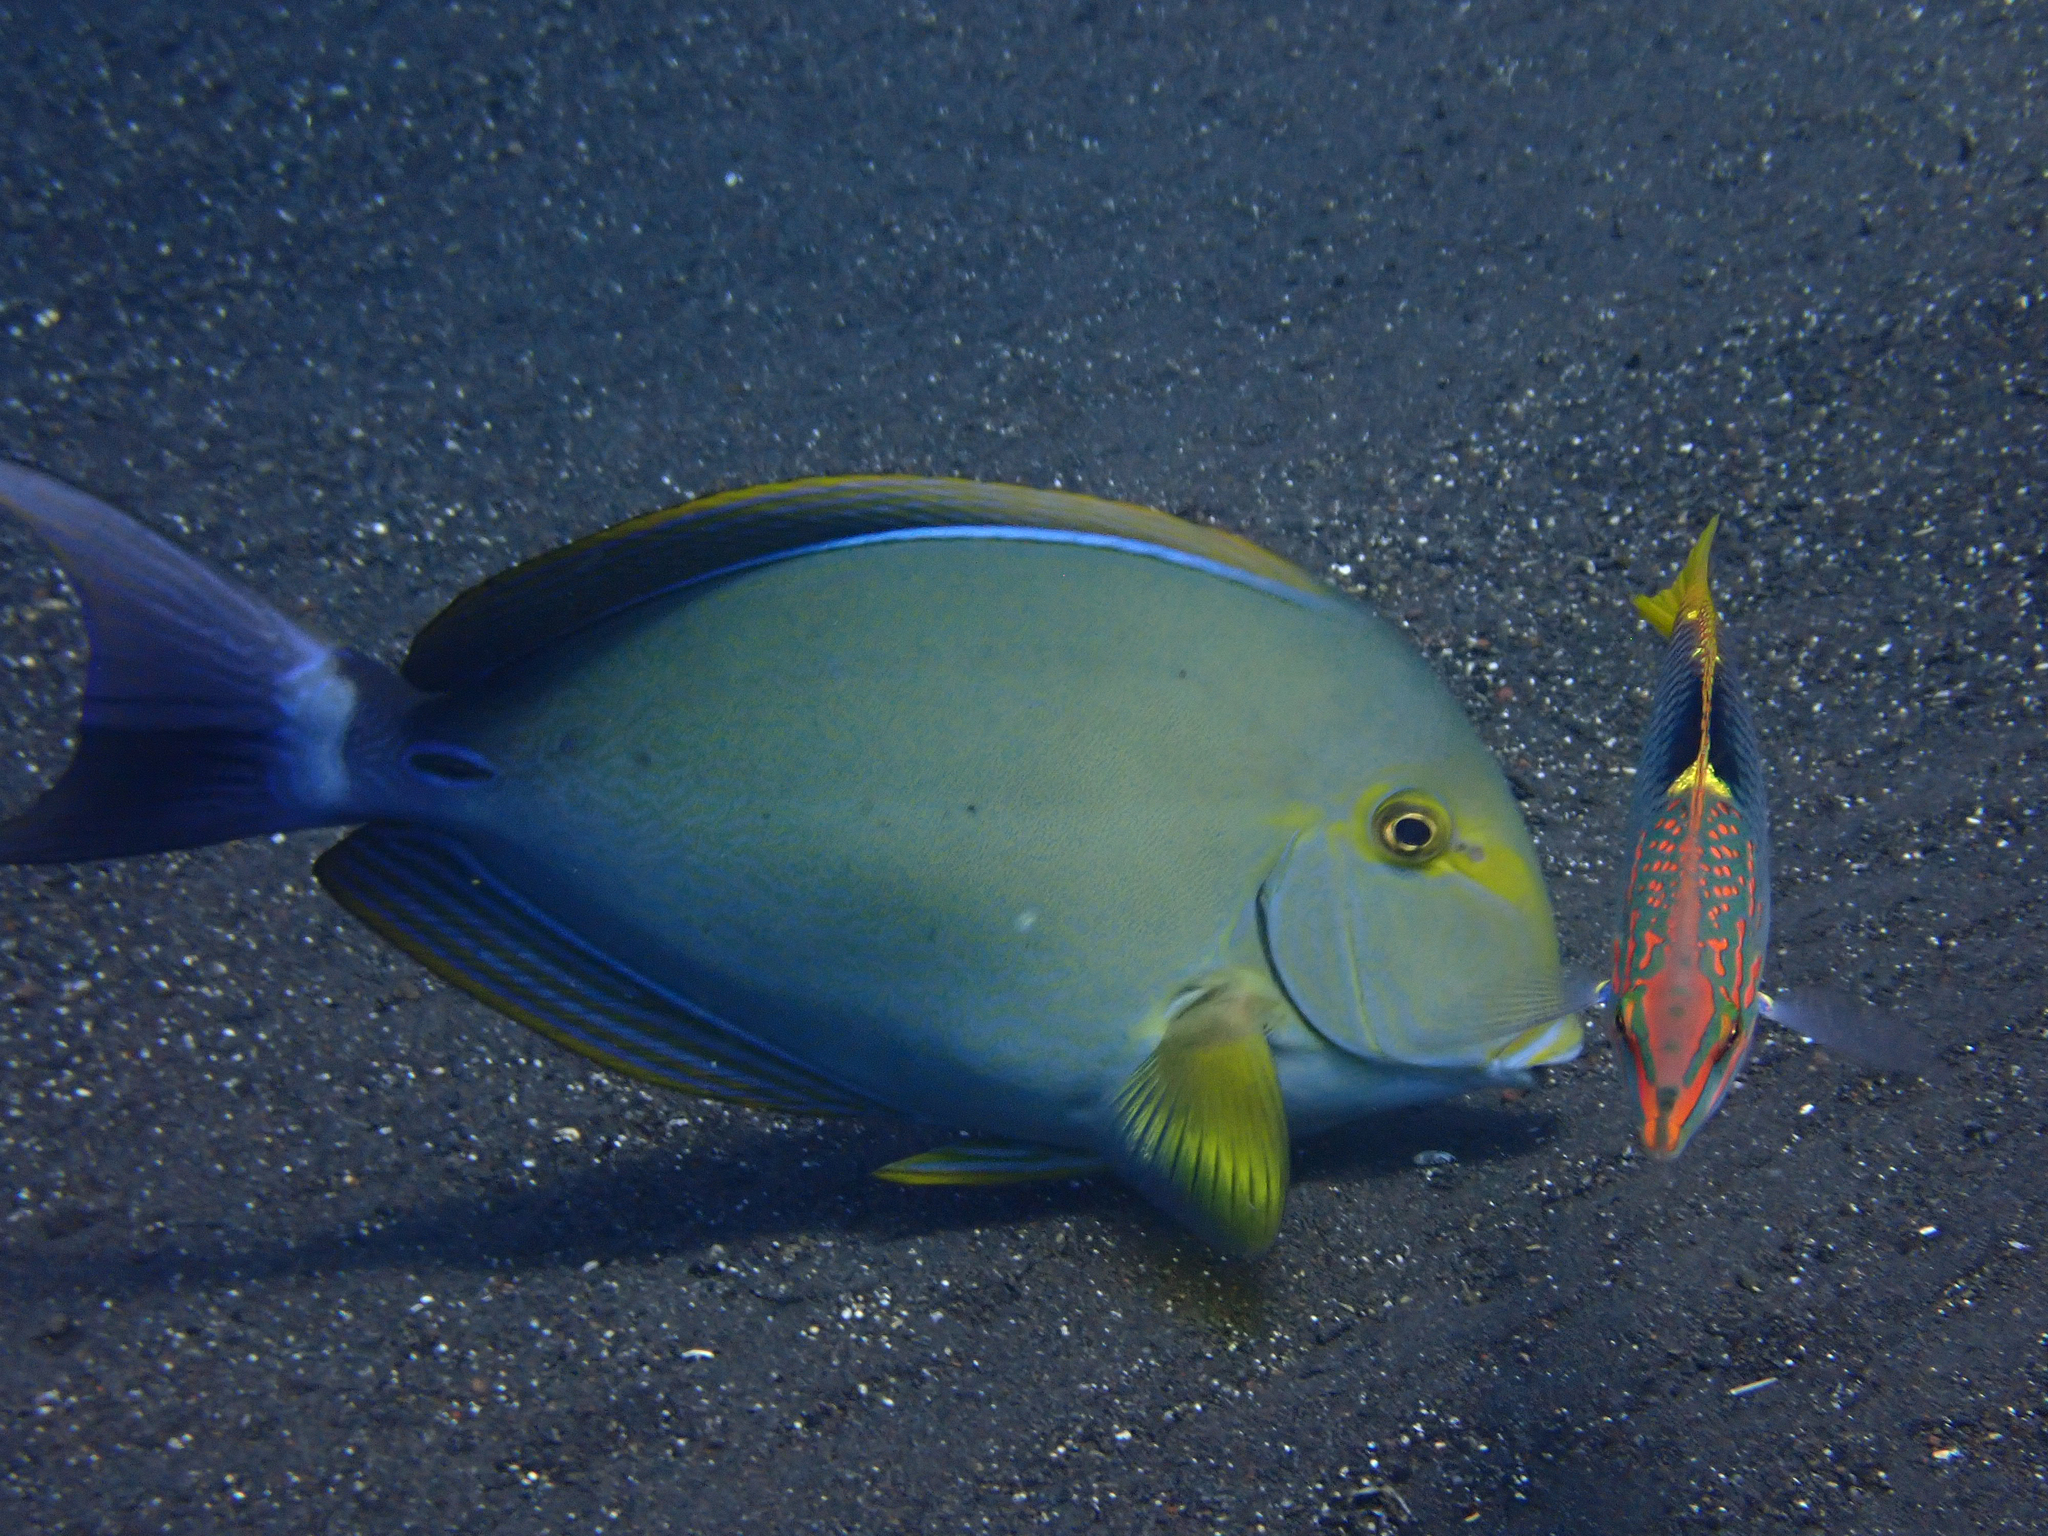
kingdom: Animalia
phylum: Chordata
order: Perciformes
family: Acanthuridae
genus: Acanthurus
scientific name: Acanthurus xanthopterus
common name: Cuvier's surgeonfish
